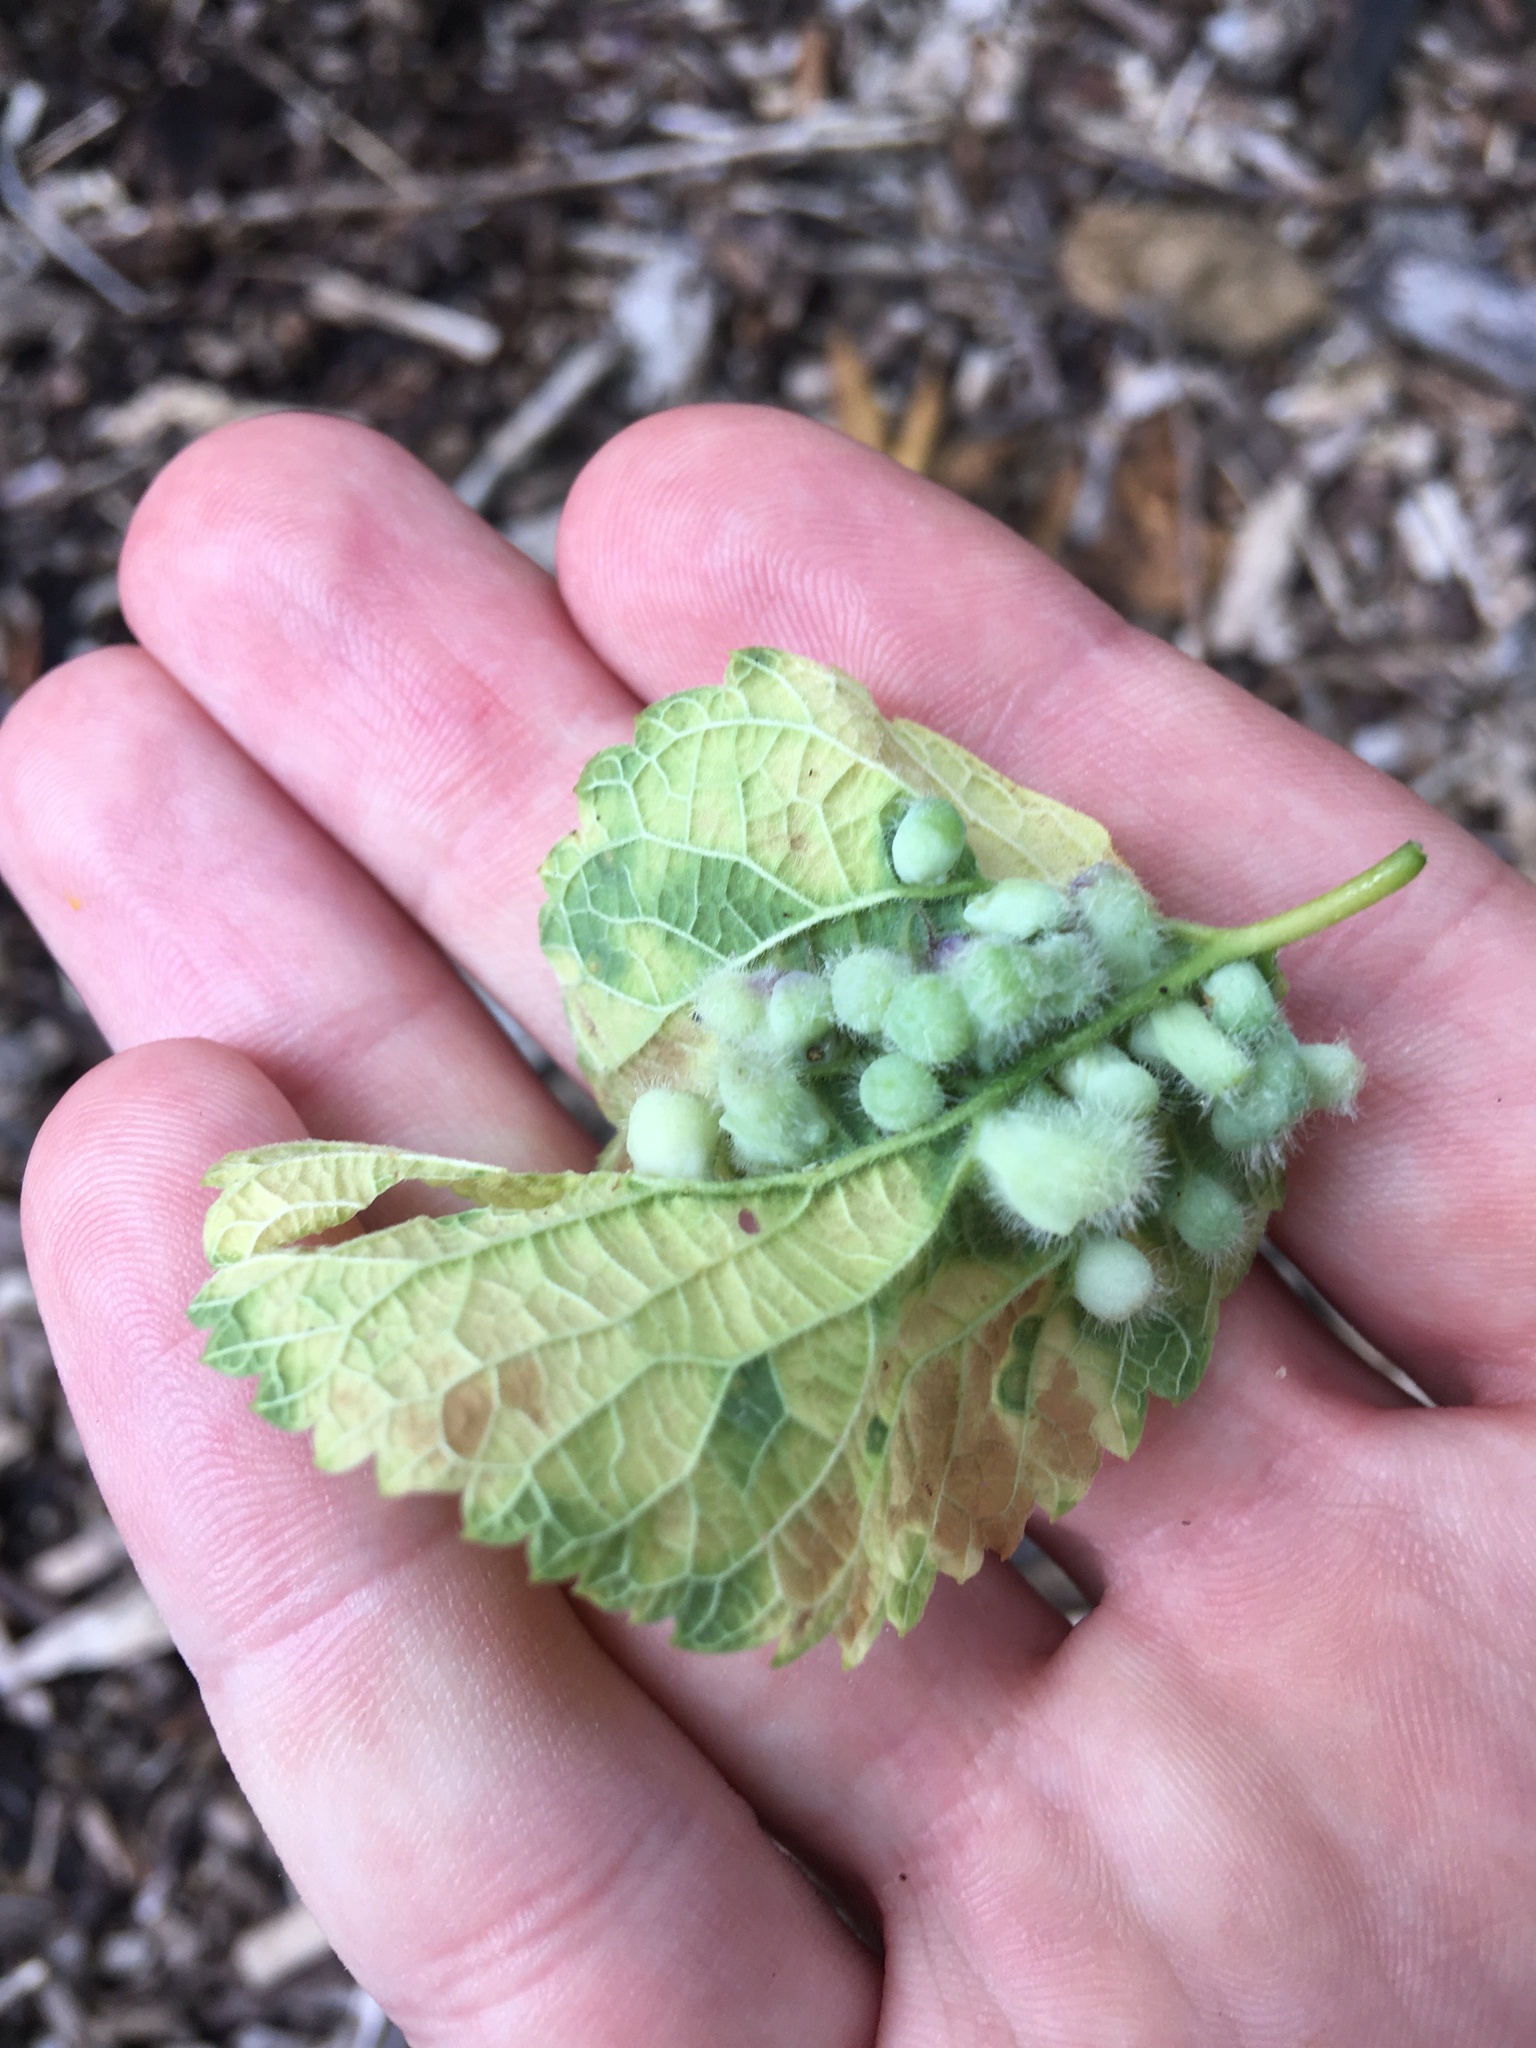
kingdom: Animalia
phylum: Arthropoda
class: Insecta
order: Hemiptera
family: Aphalaridae
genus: Pachypsylla
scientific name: Pachypsylla celtidismamma
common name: Hackberry nipplegall psyllid
